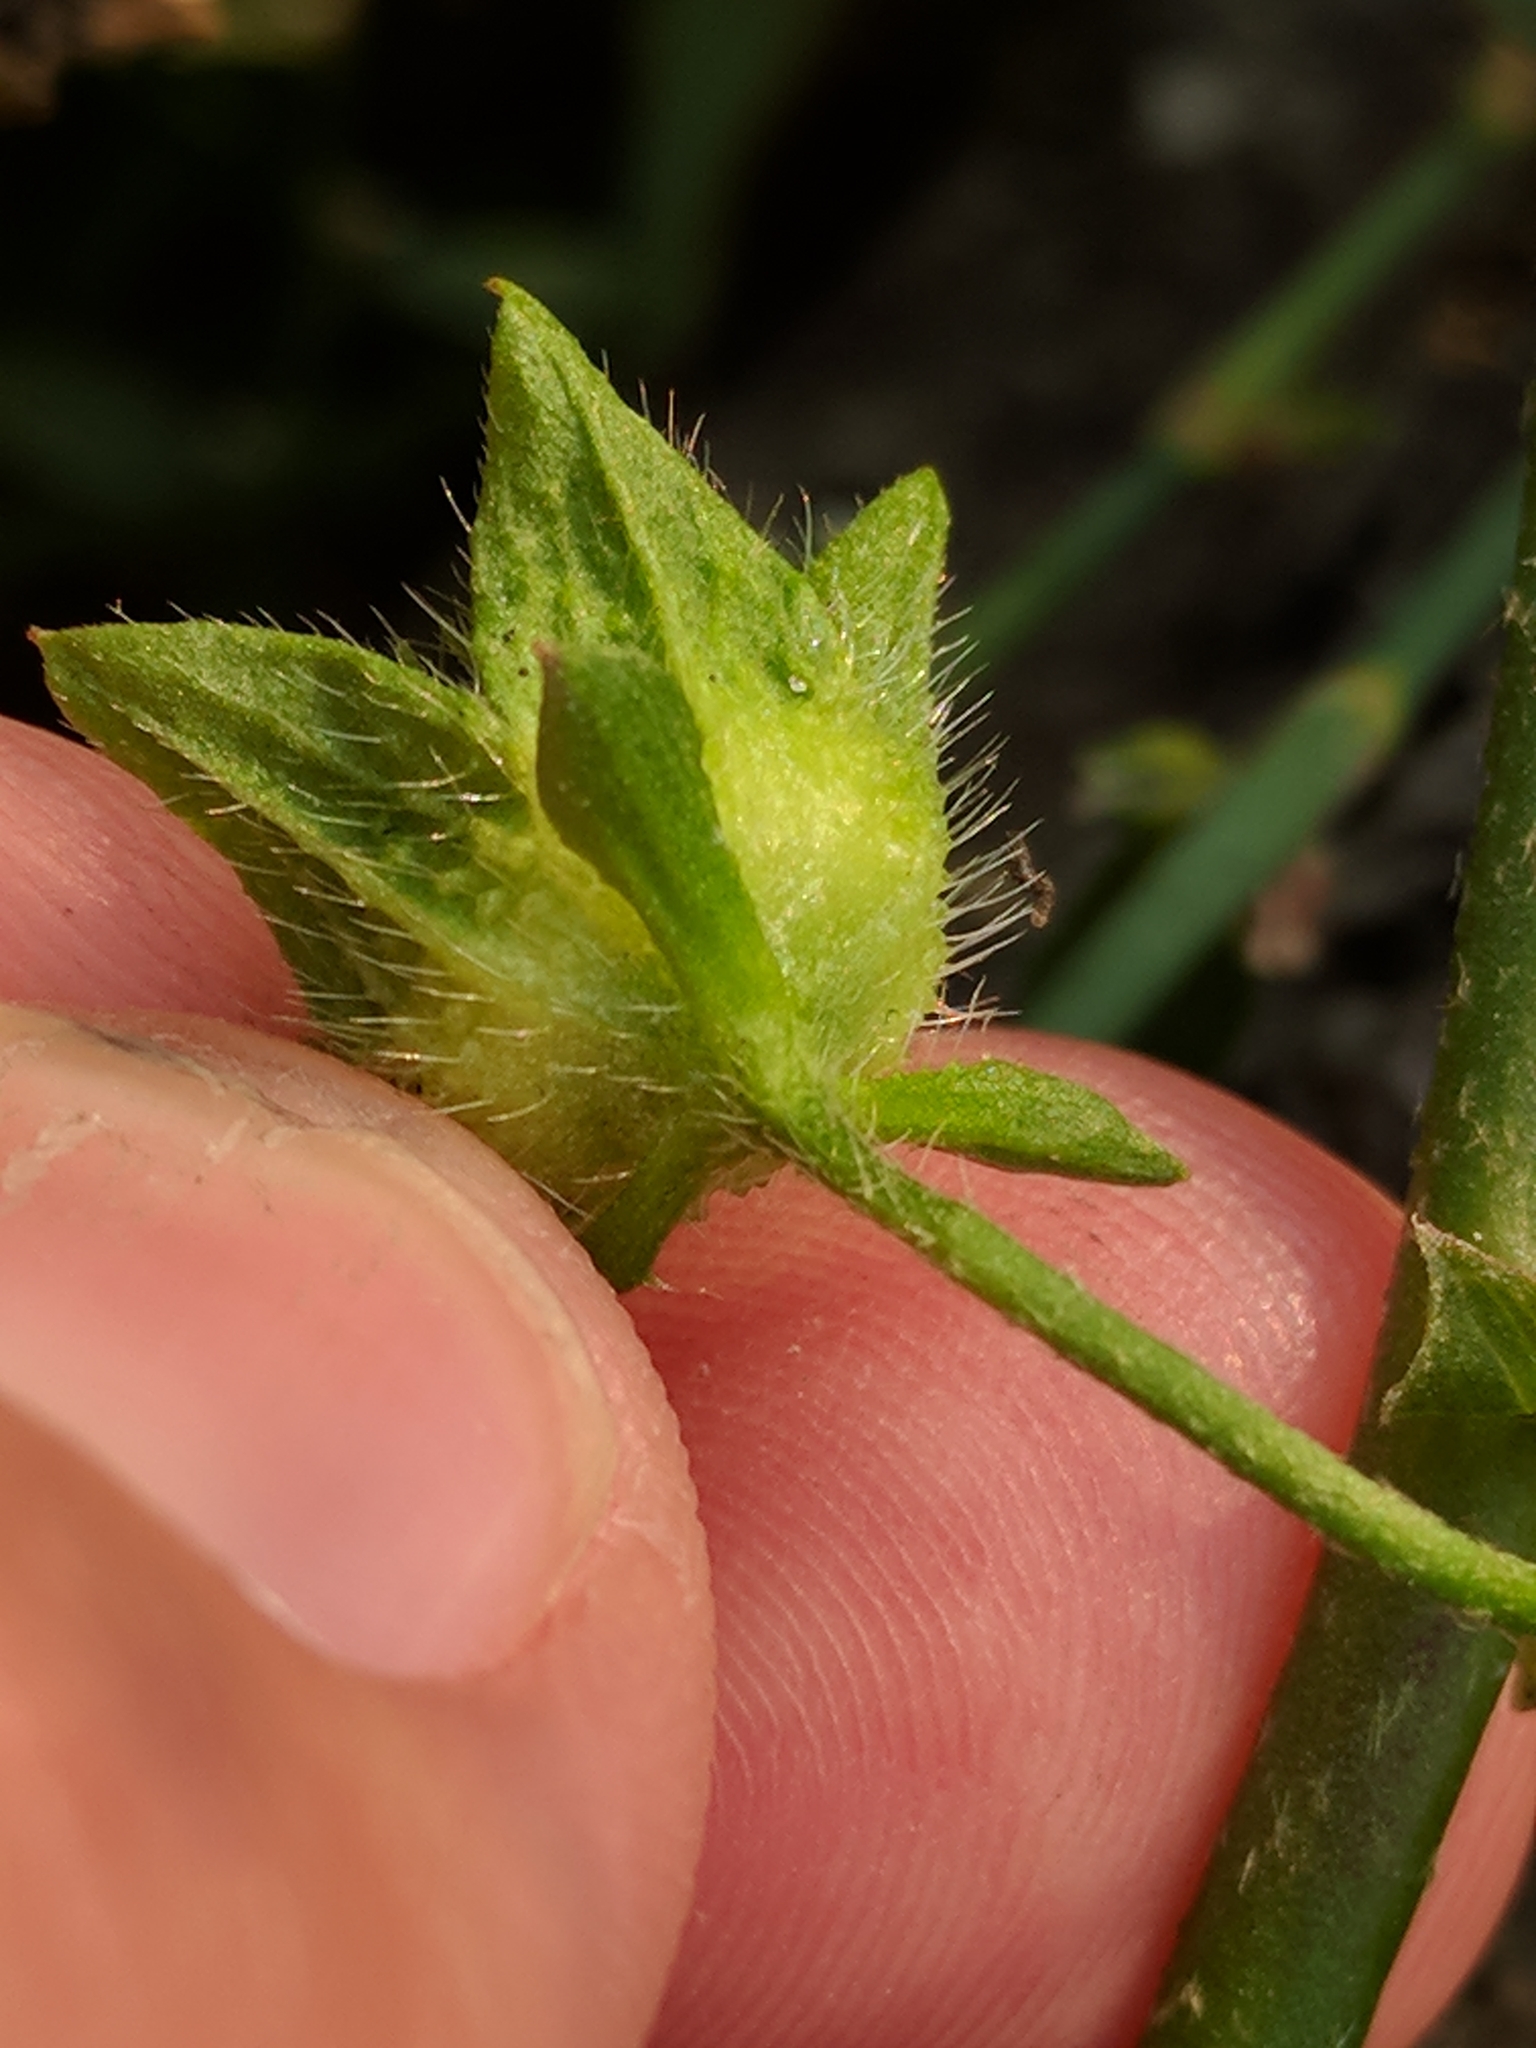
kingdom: Plantae
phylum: Tracheophyta
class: Magnoliopsida
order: Malvales
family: Malvaceae
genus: Modiola
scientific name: Modiola caroliniana
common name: Carolina bristlemallow
